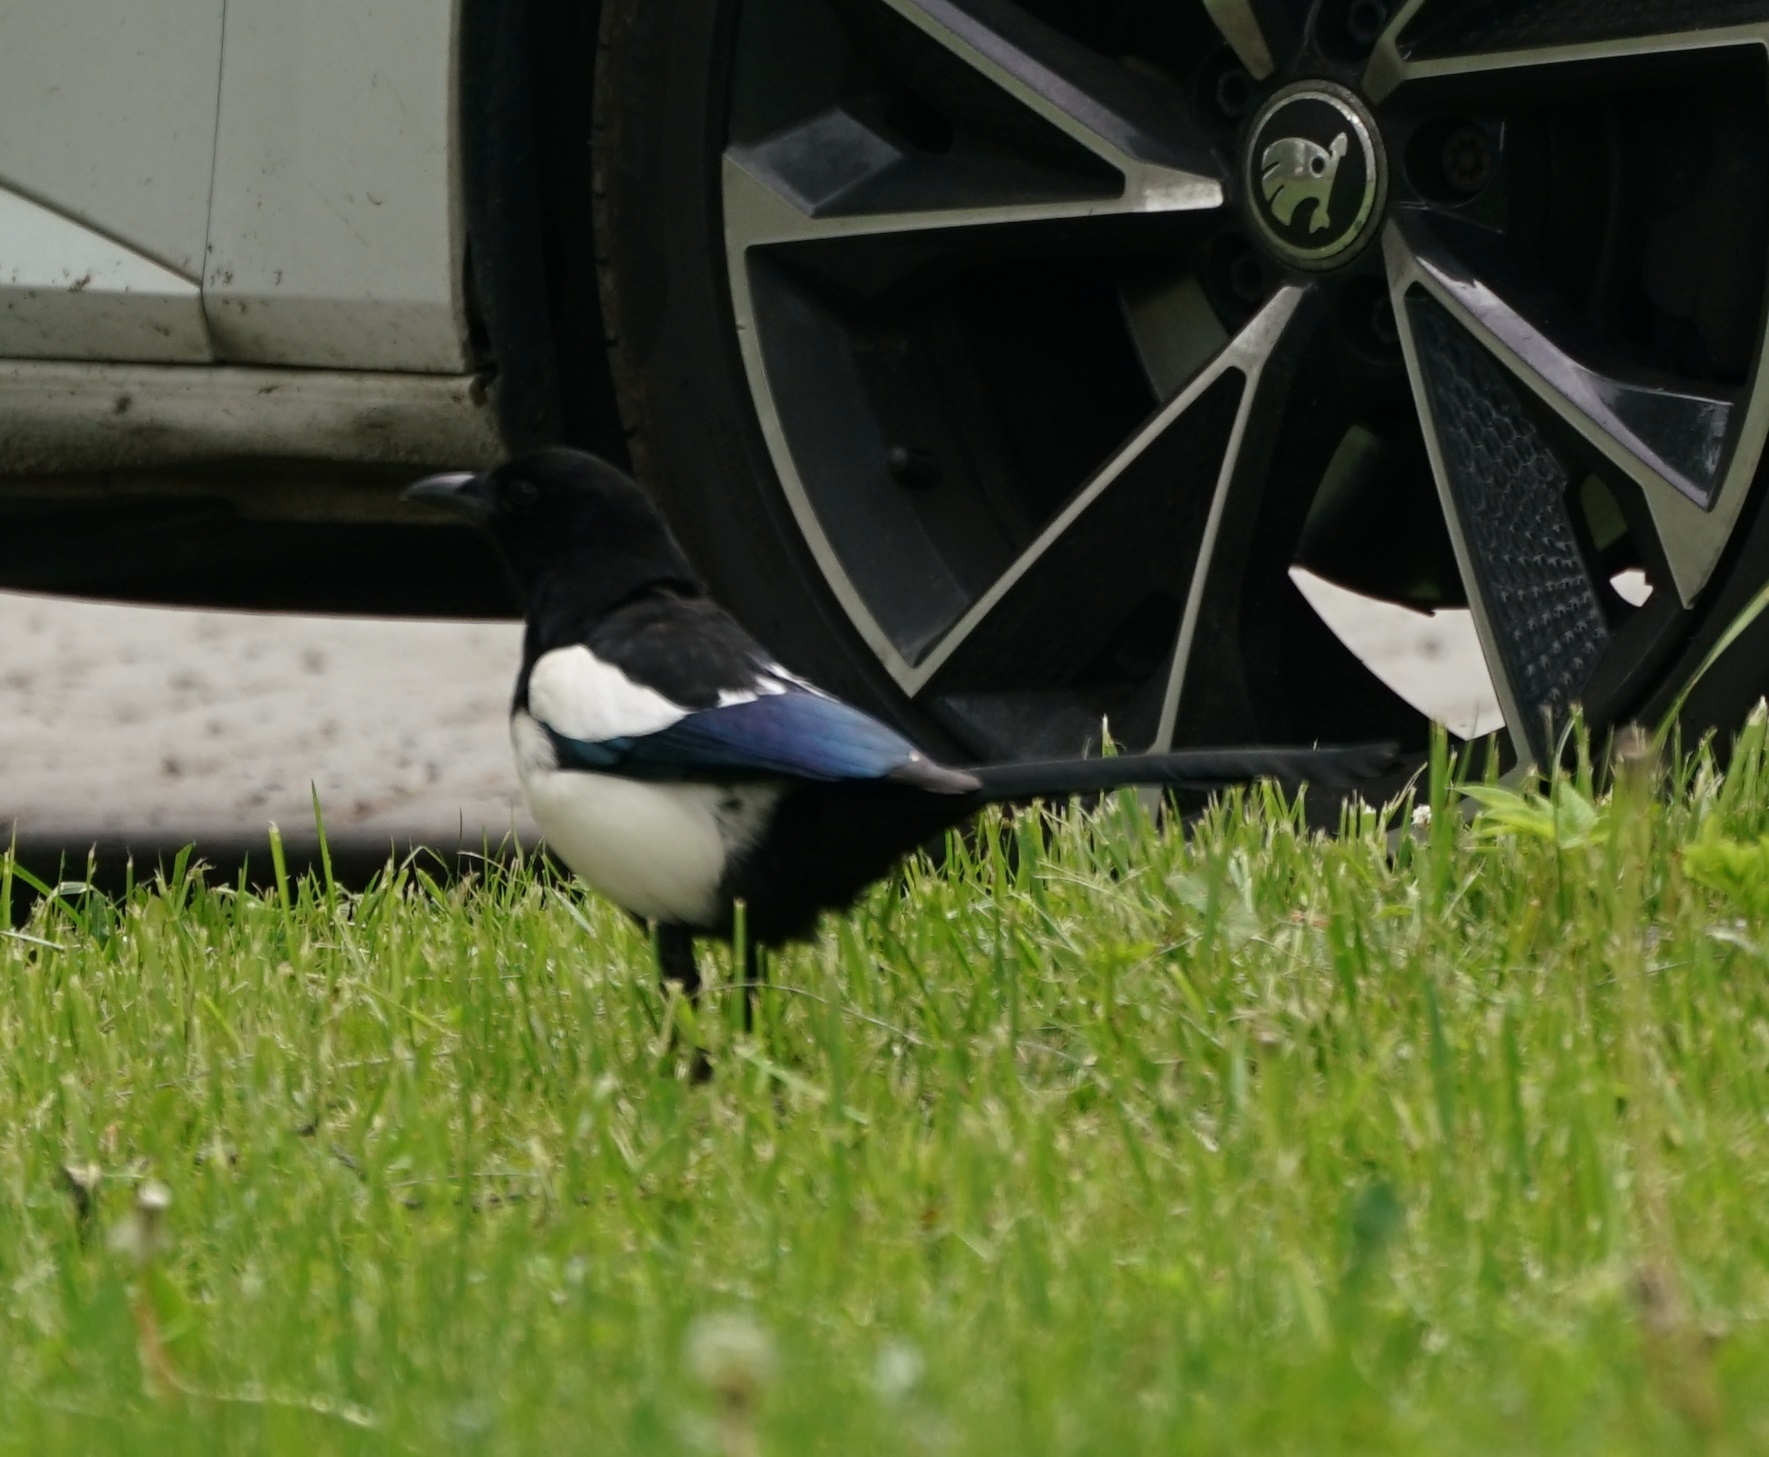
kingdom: Animalia
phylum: Chordata
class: Aves
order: Passeriformes
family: Corvidae
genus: Pica
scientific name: Pica pica
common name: Eurasian magpie
